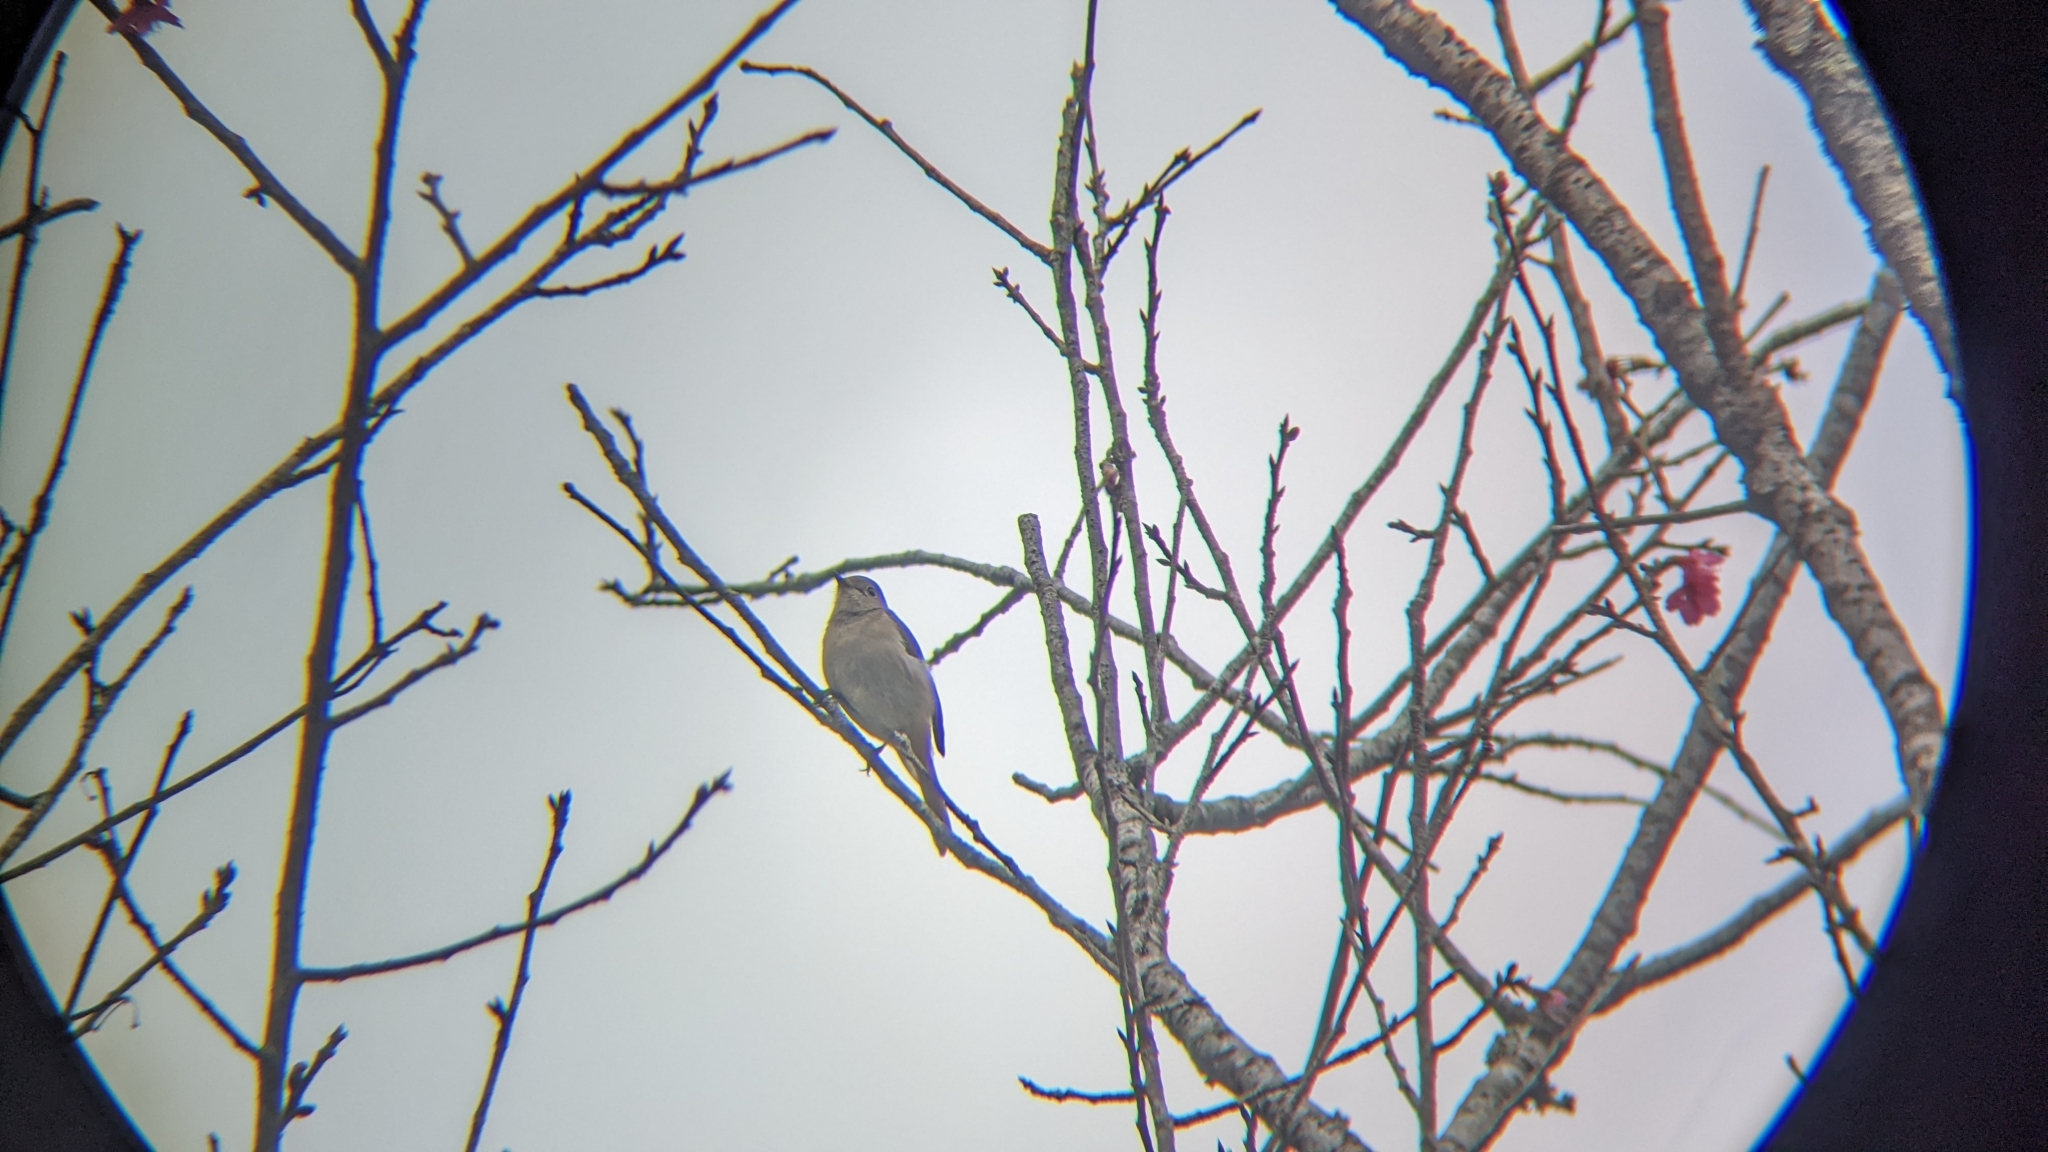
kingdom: Animalia
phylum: Chordata
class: Aves
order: Passeriformes
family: Muscicapidae
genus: Phoenicurus
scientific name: Phoenicurus auroreus
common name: Daurian redstart
